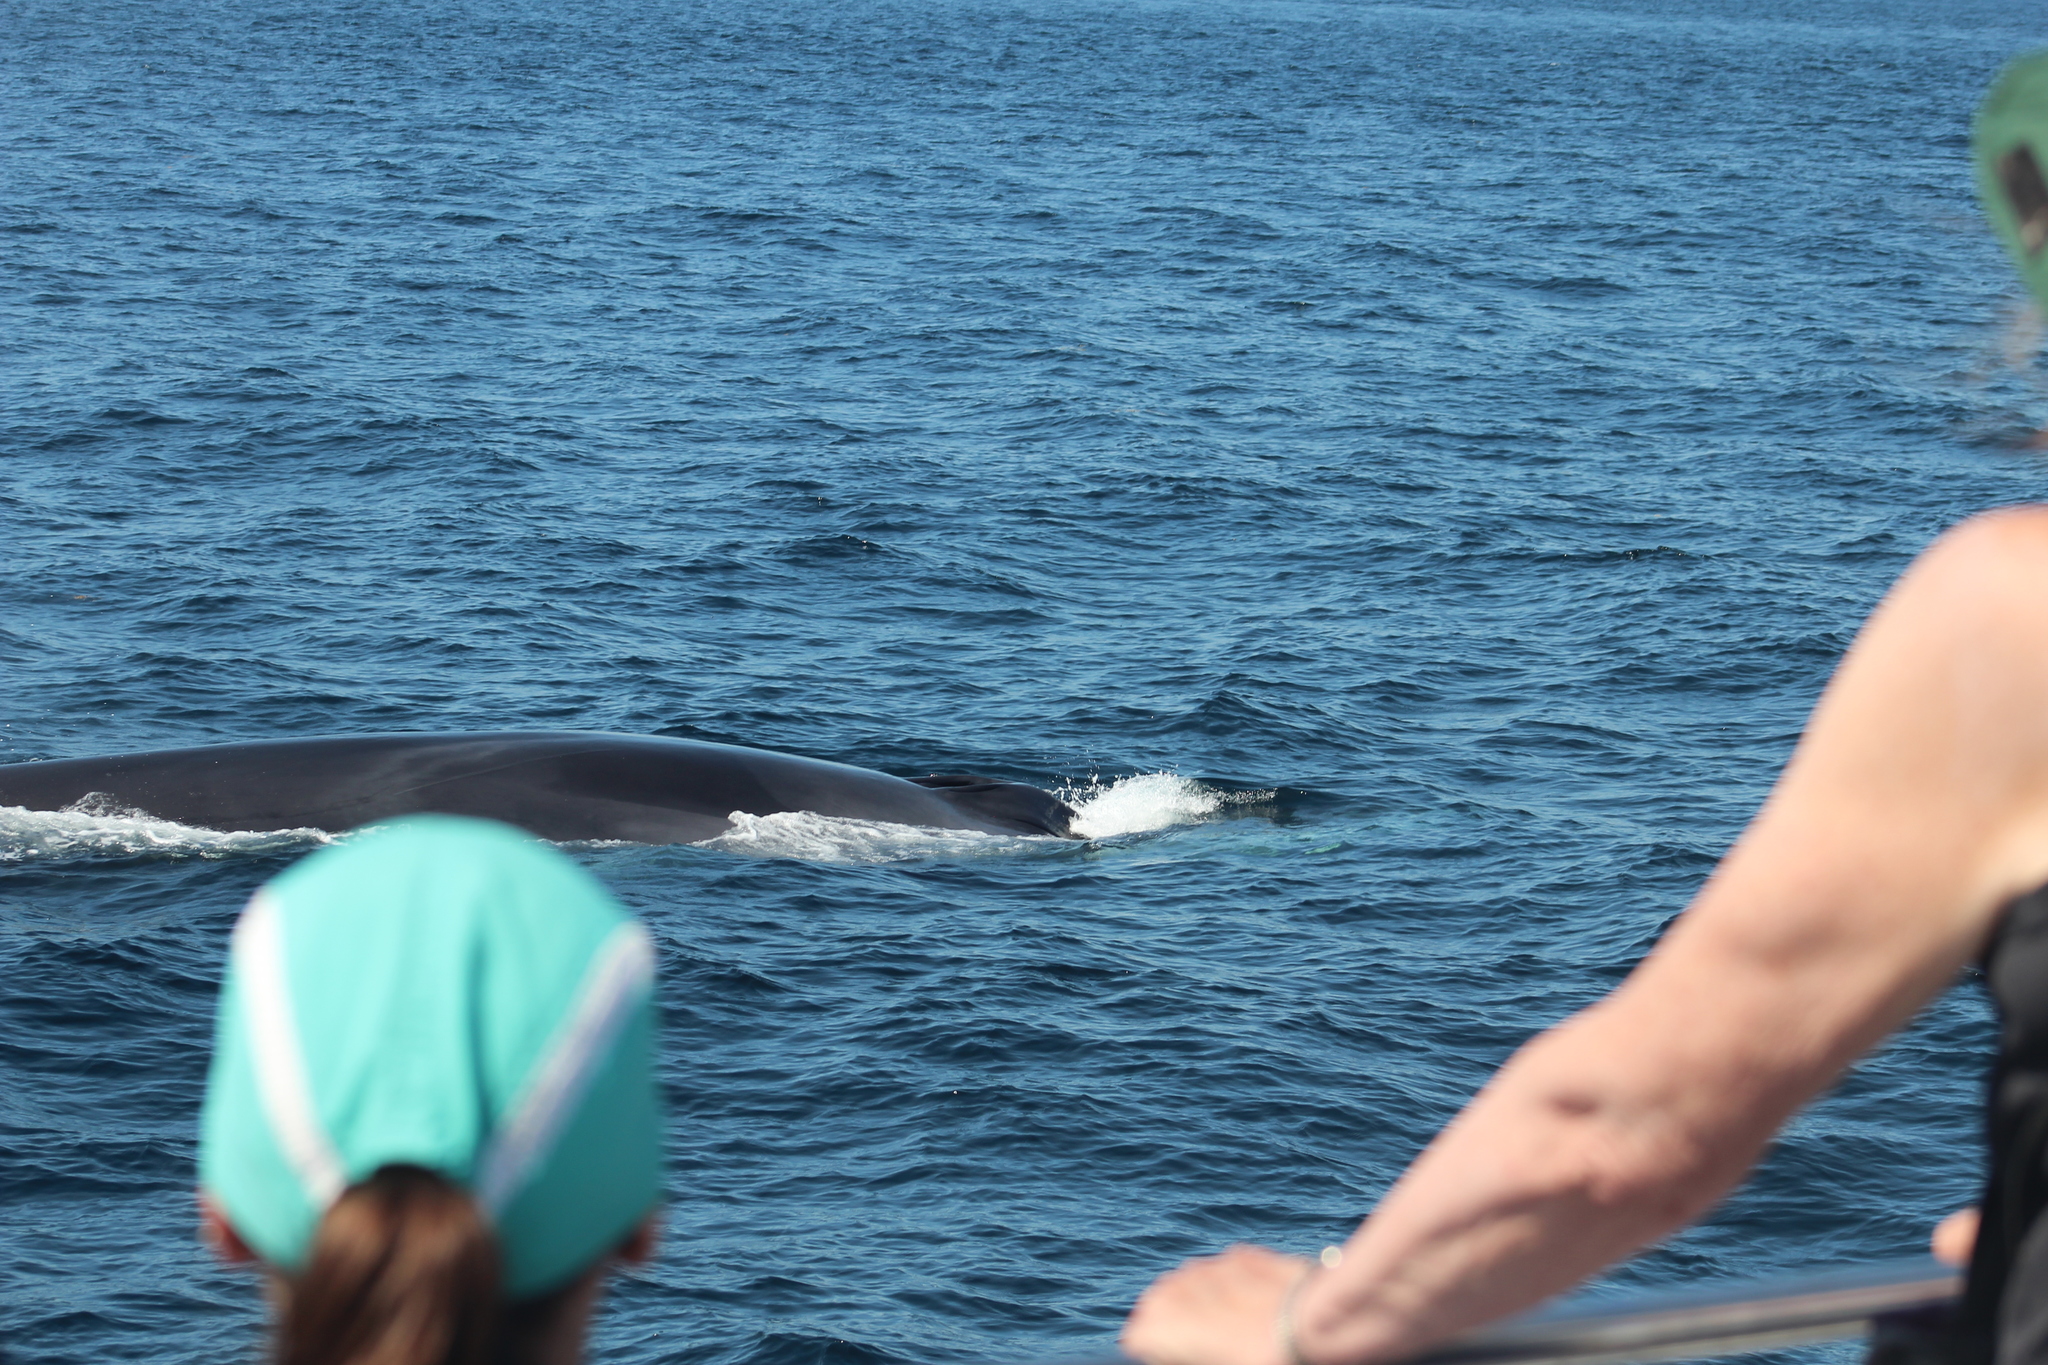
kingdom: Animalia
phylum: Chordata
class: Mammalia
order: Cetacea
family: Balaenopteridae
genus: Balaenoptera
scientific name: Balaenoptera physalus
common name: Fin whale
